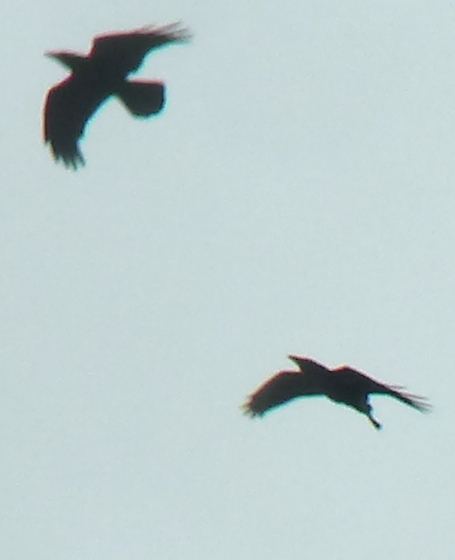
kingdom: Animalia
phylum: Chordata
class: Aves
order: Passeriformes
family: Corvidae
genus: Corvus
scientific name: Corvus corax
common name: Common raven
